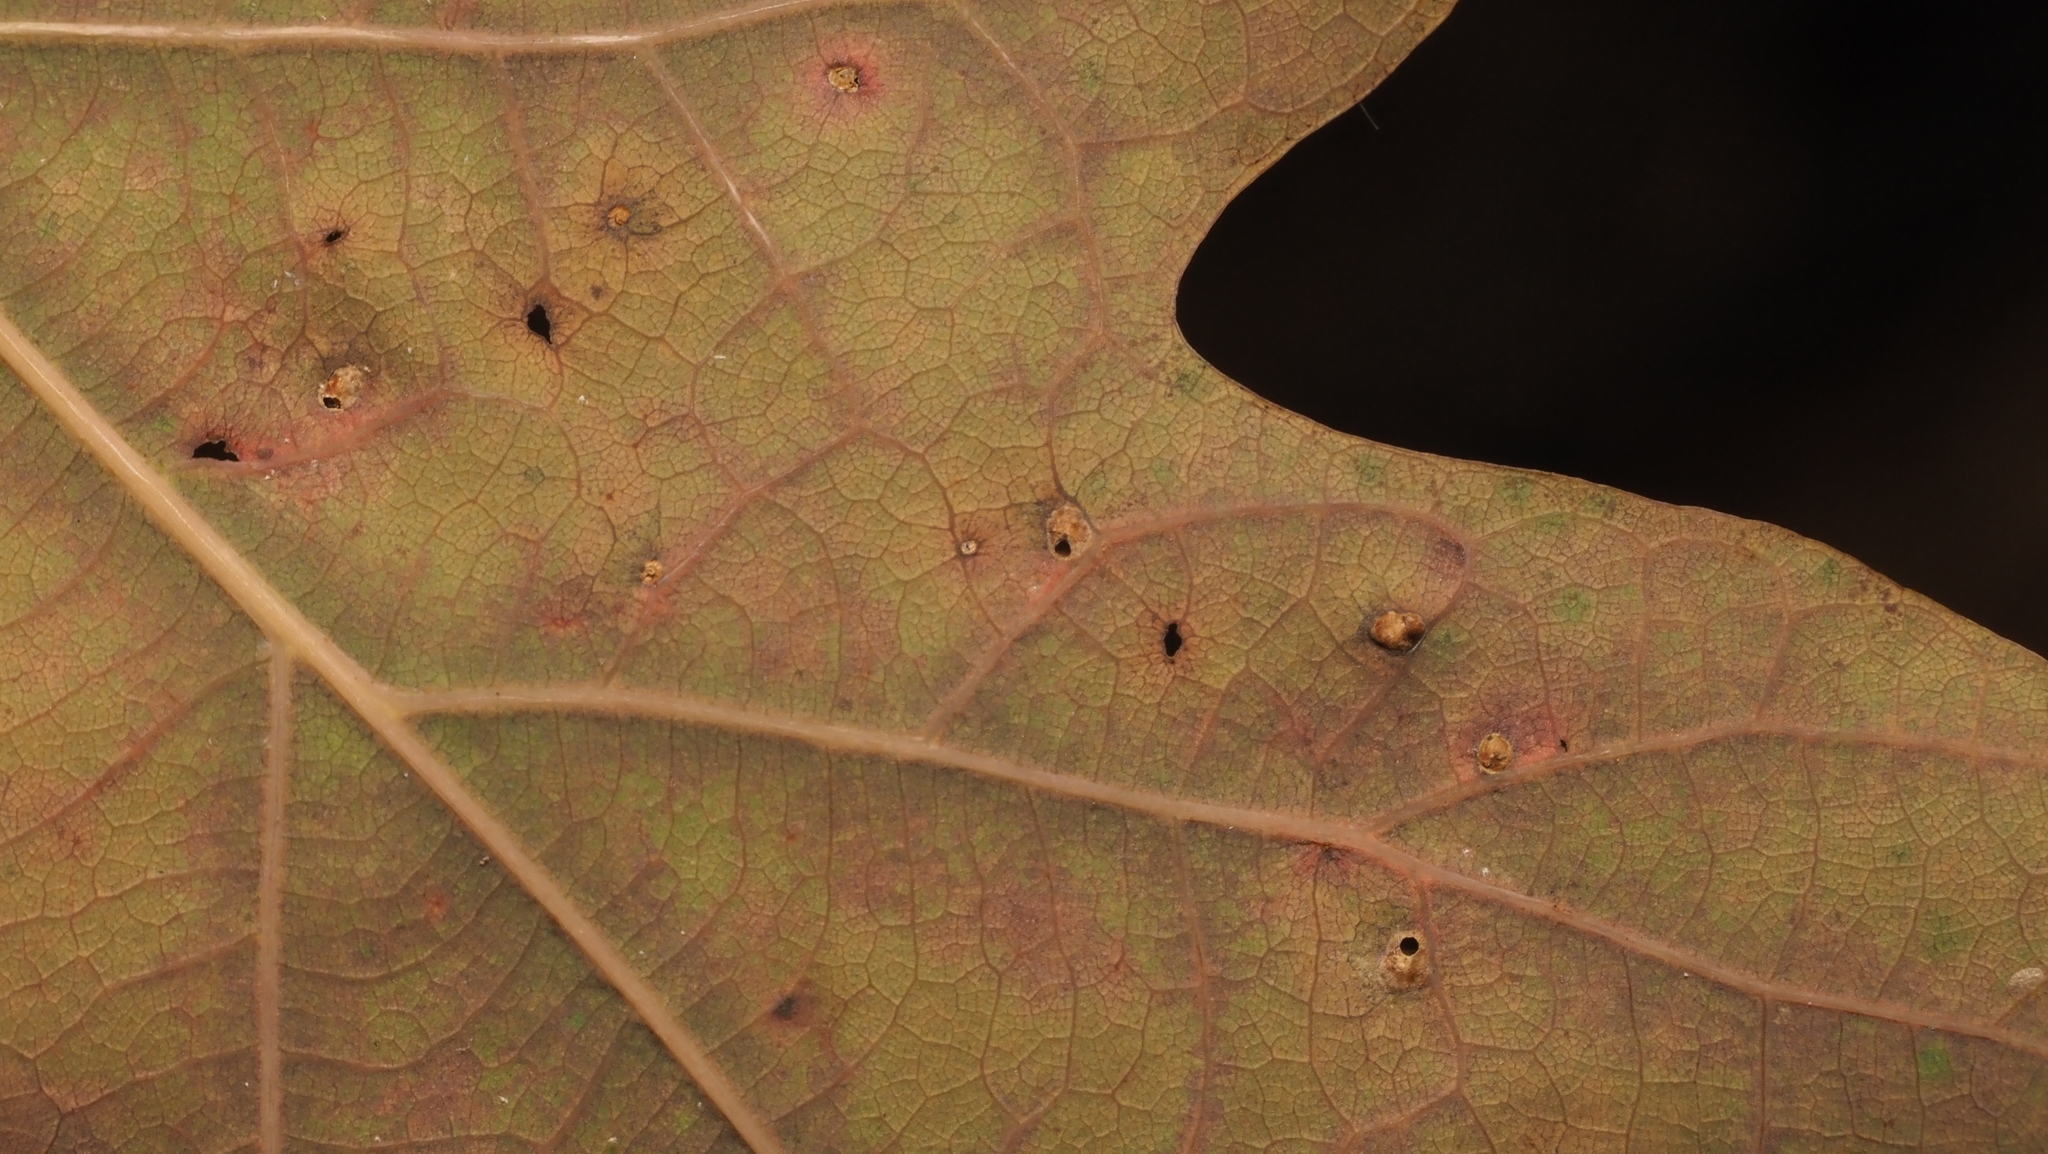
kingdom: Animalia
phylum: Arthropoda
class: Insecta
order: Hymenoptera
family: Cynipidae
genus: Neuroterus
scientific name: Neuroterus quercusverrucarum
